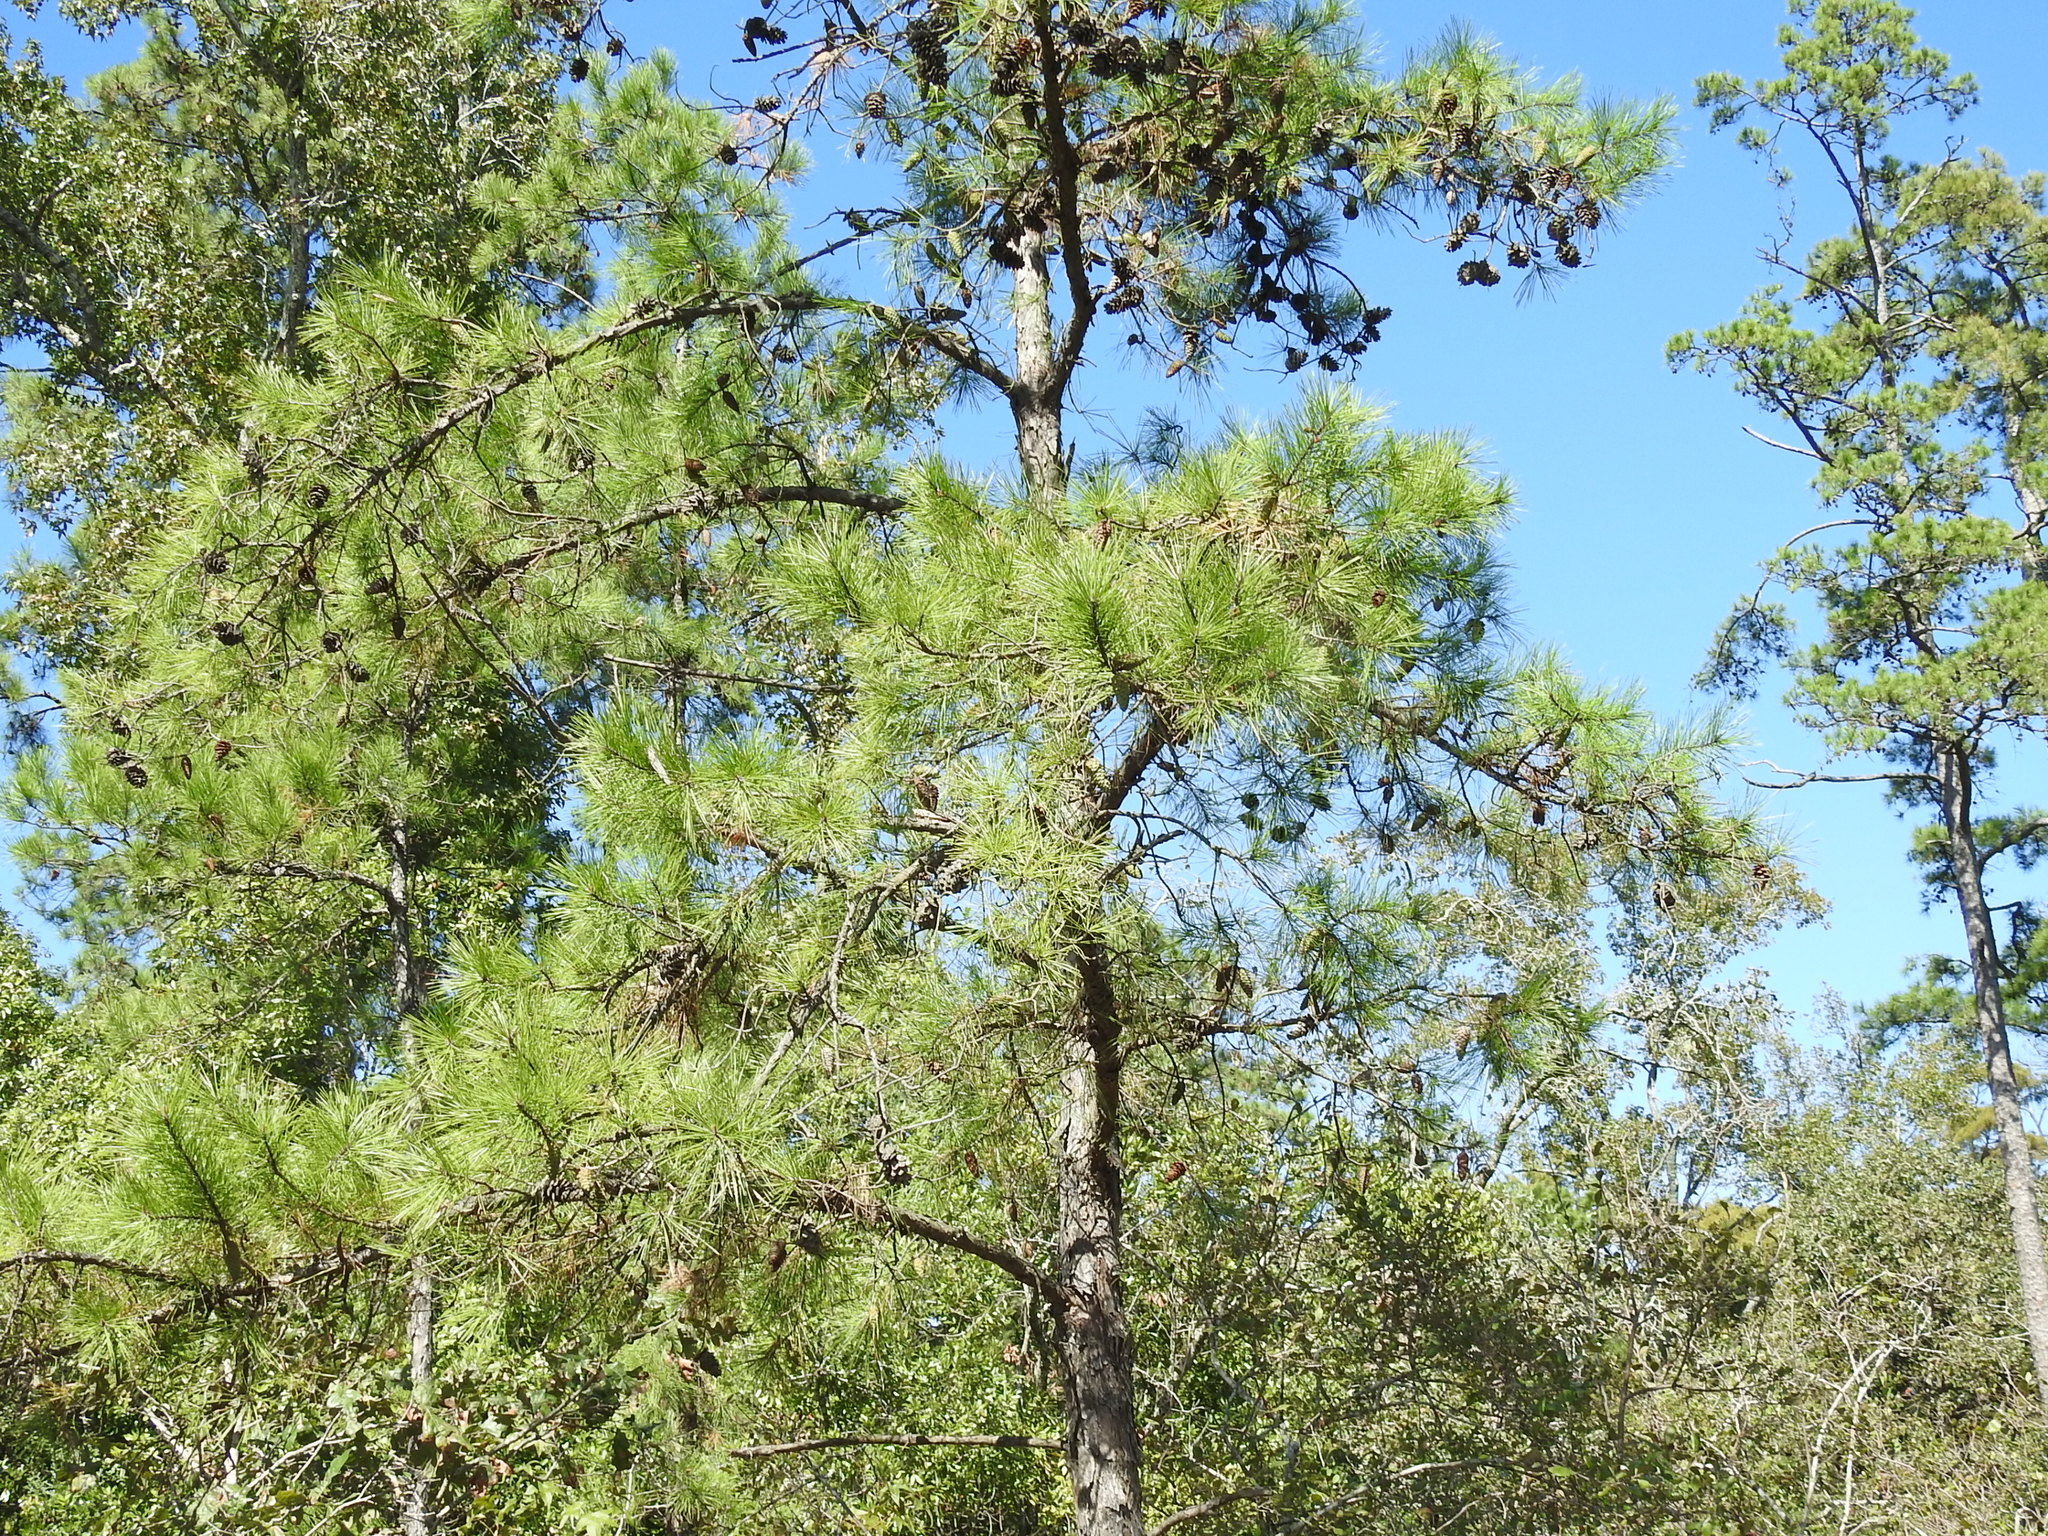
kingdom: Plantae
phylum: Tracheophyta
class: Pinopsida
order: Pinales
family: Pinaceae
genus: Pinus
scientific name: Pinus echinata
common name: Shortleaf pine
